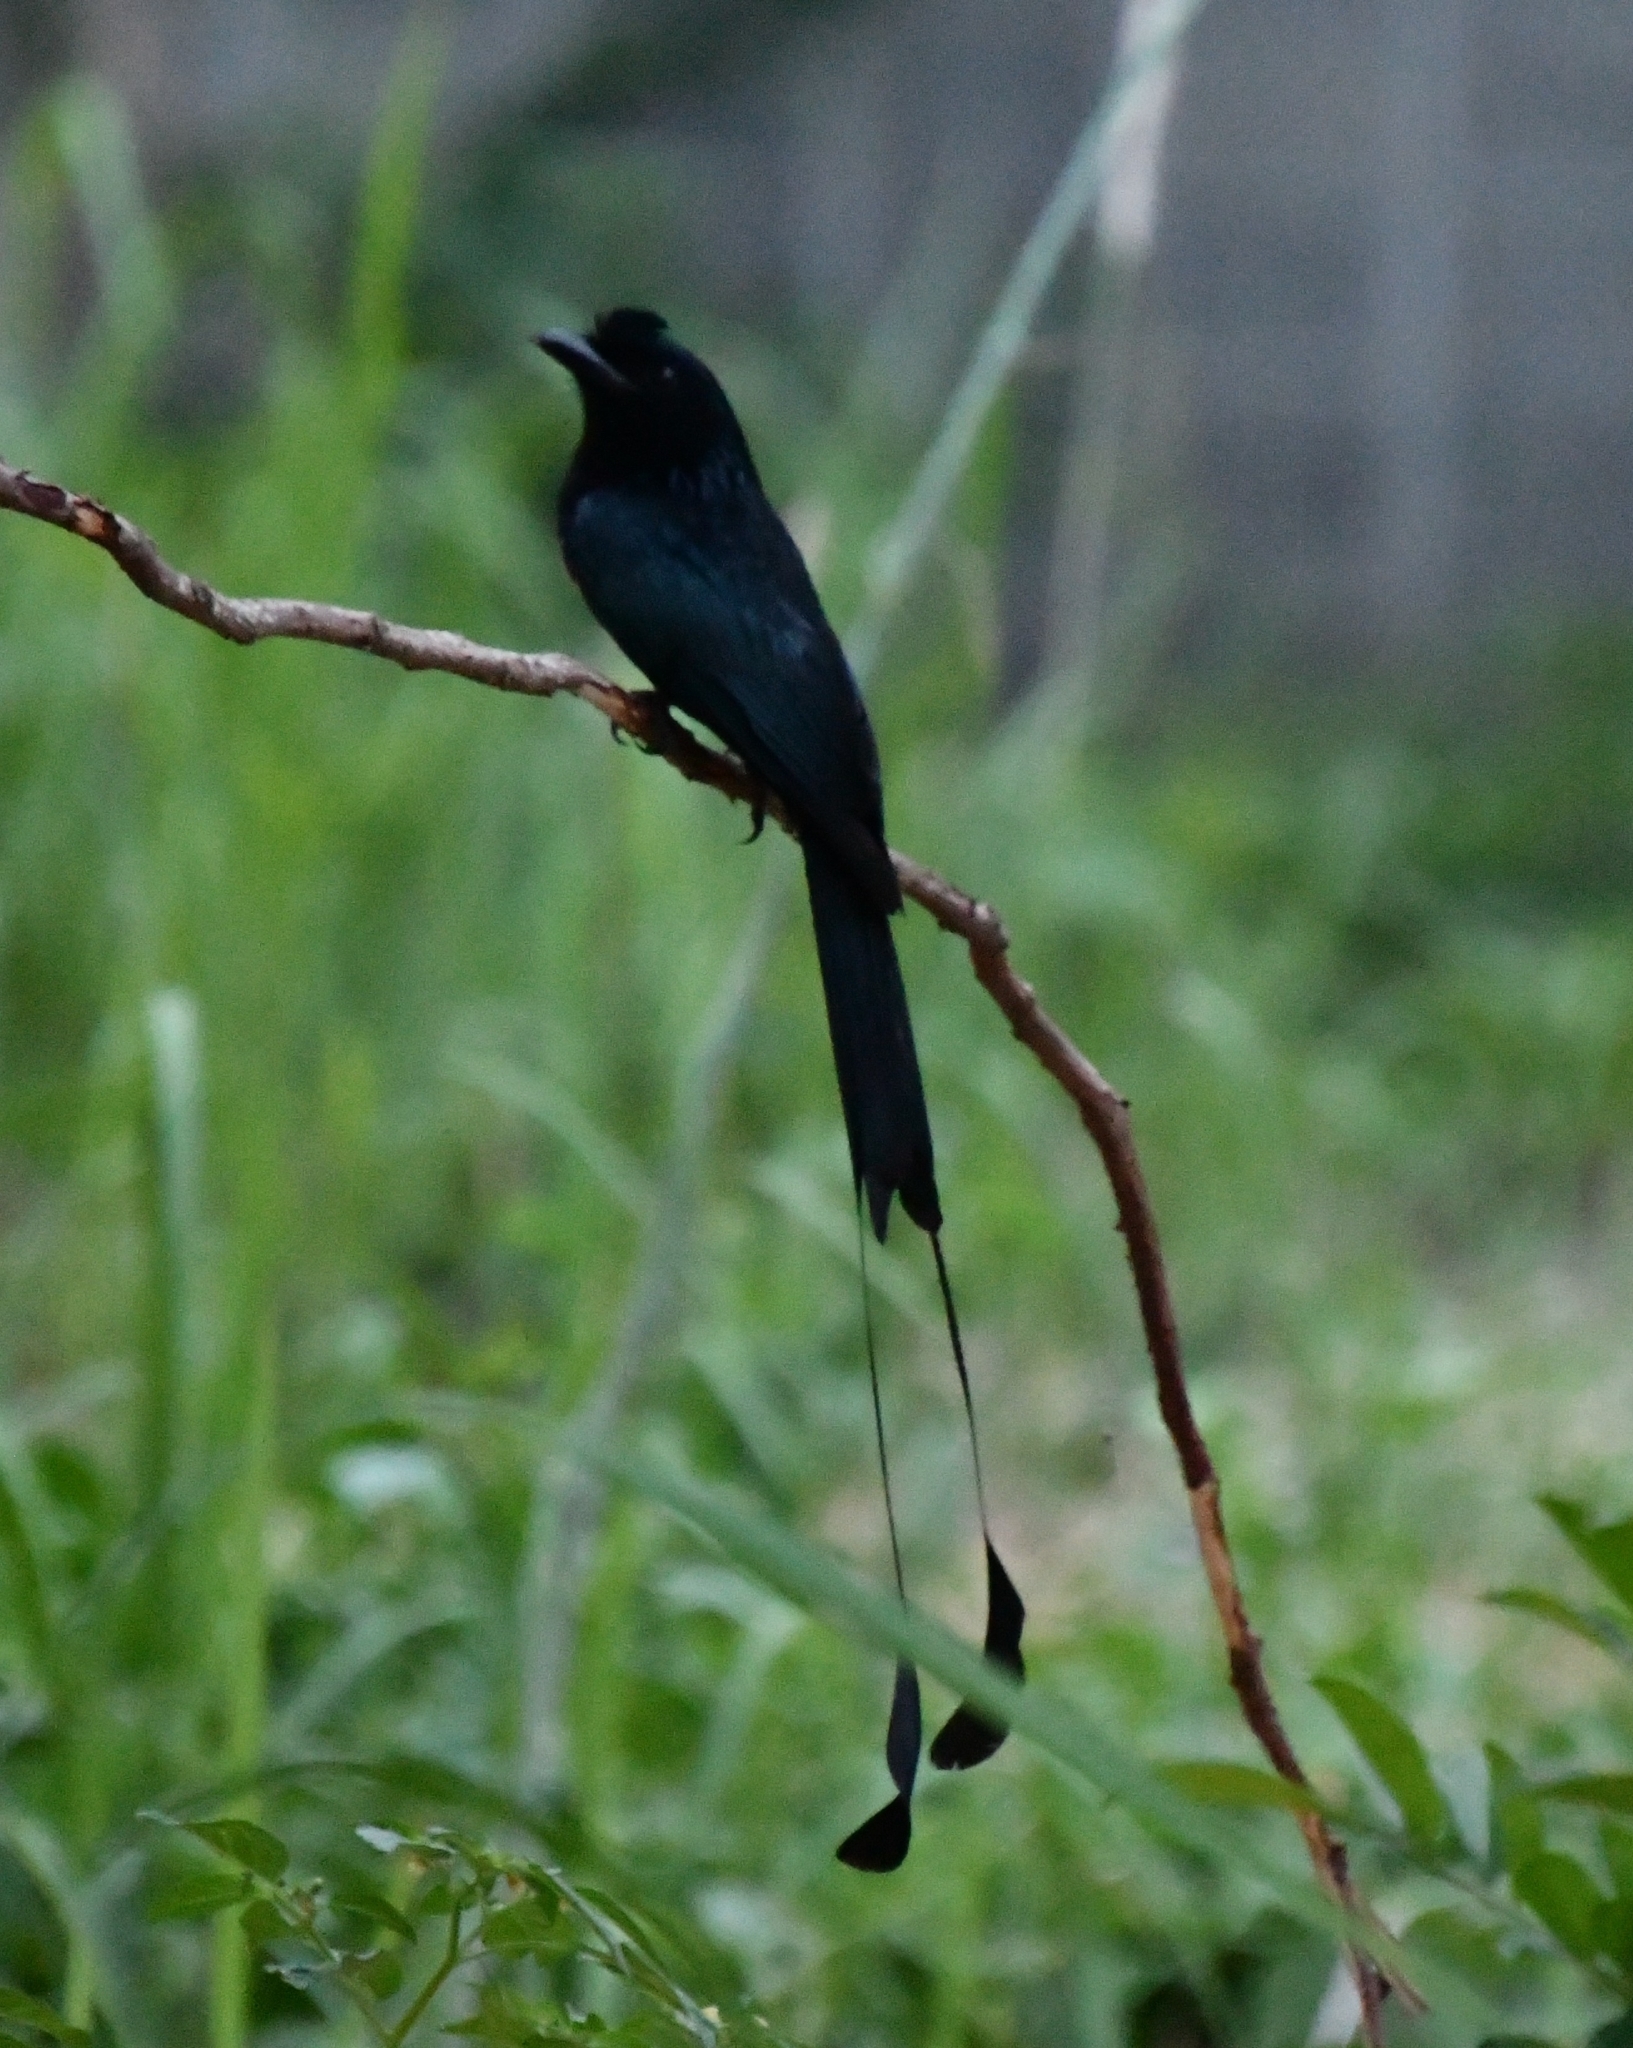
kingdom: Animalia
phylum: Chordata
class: Aves
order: Passeriformes
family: Dicruridae
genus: Dicrurus
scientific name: Dicrurus paradiseus
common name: Greater racket-tailed drongo
